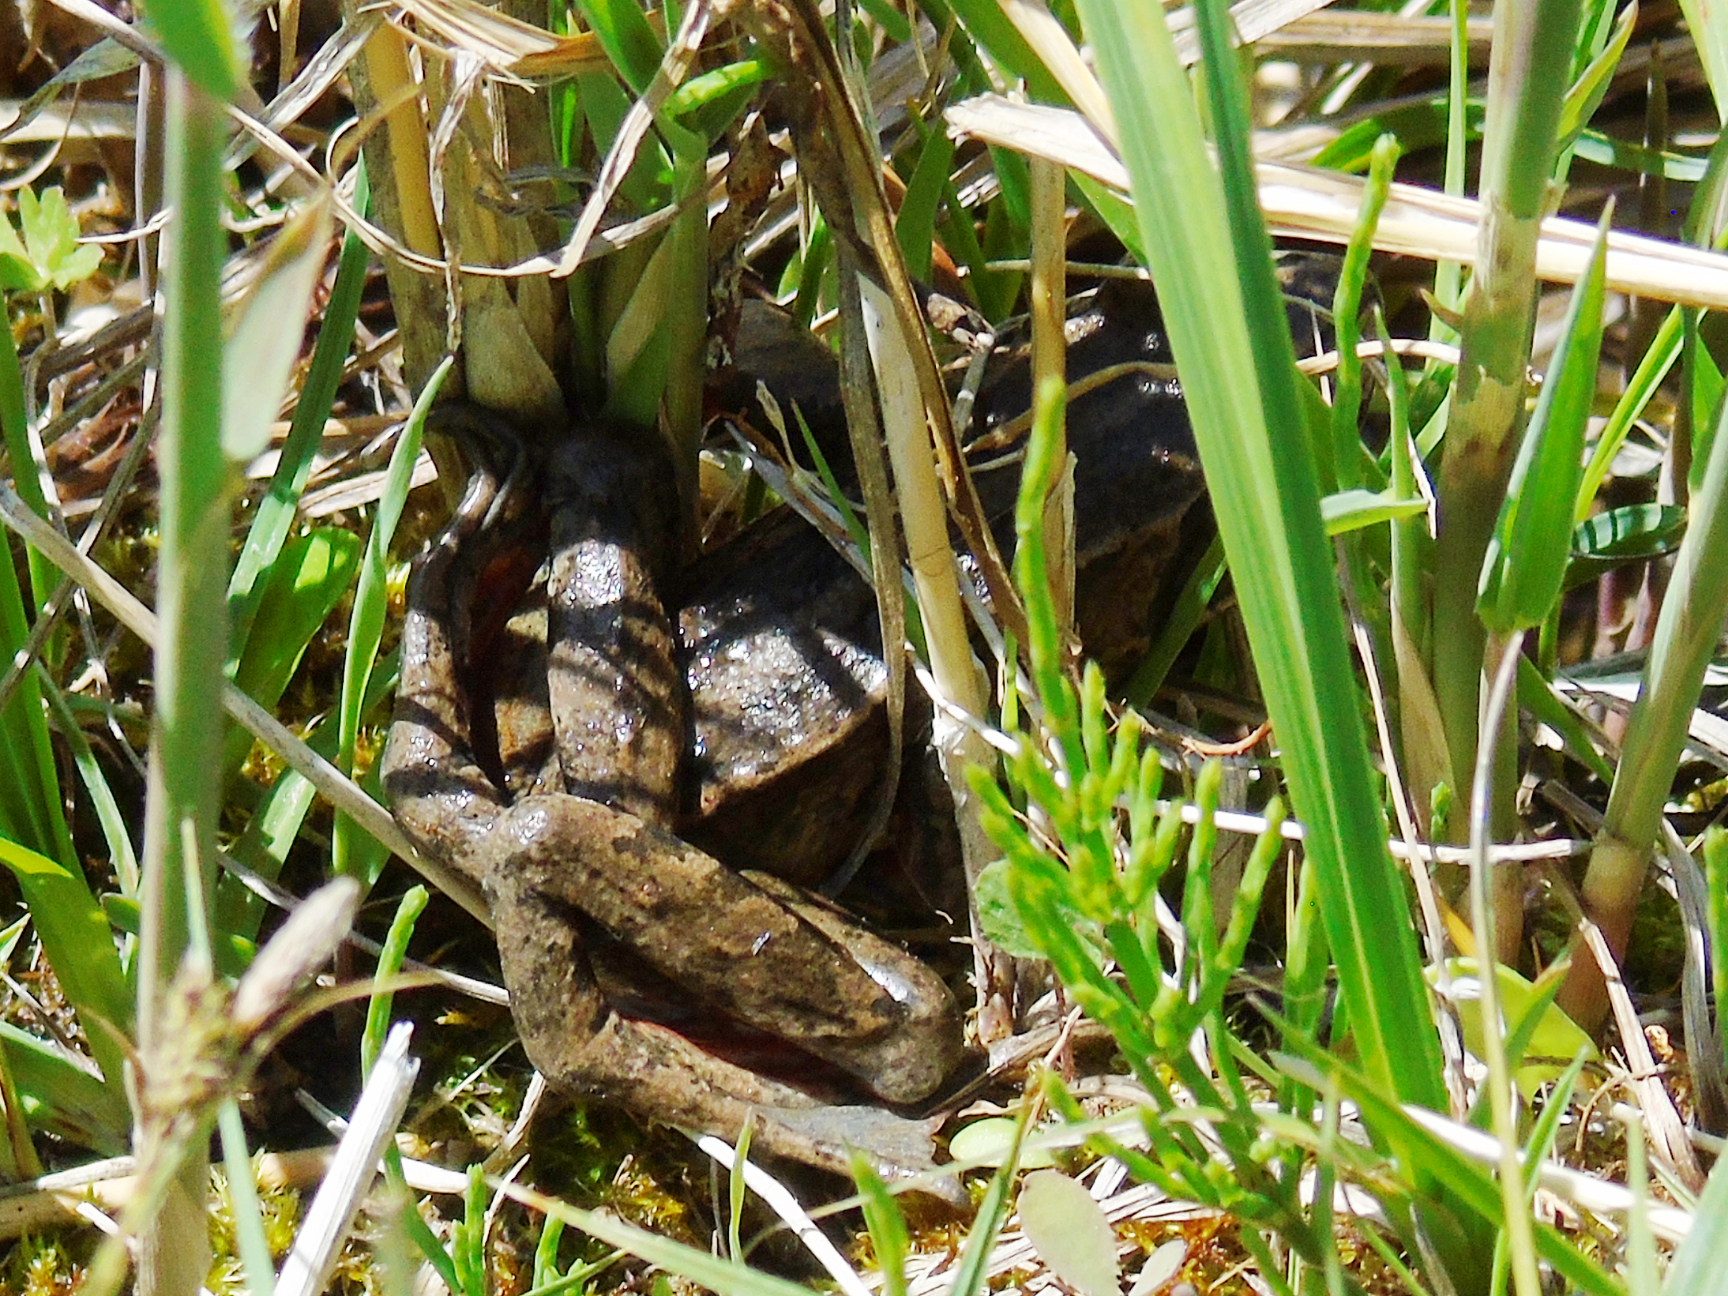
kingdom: Animalia
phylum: Chordata
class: Amphibia
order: Anura
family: Ranidae
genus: Rana
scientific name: Rana asiatica
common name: Central asian brown frog
